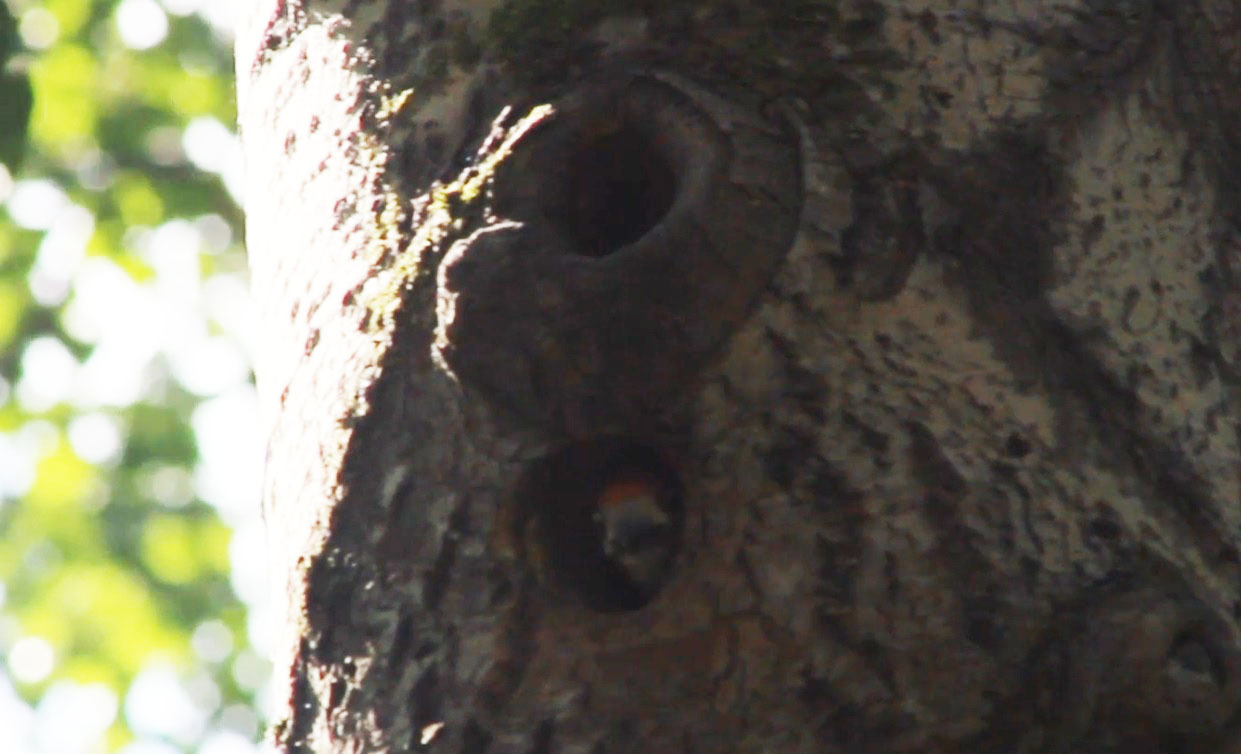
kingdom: Animalia
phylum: Chordata
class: Aves
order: Piciformes
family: Picidae
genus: Dendrocopos
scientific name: Dendrocopos major
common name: Great spotted woodpecker
